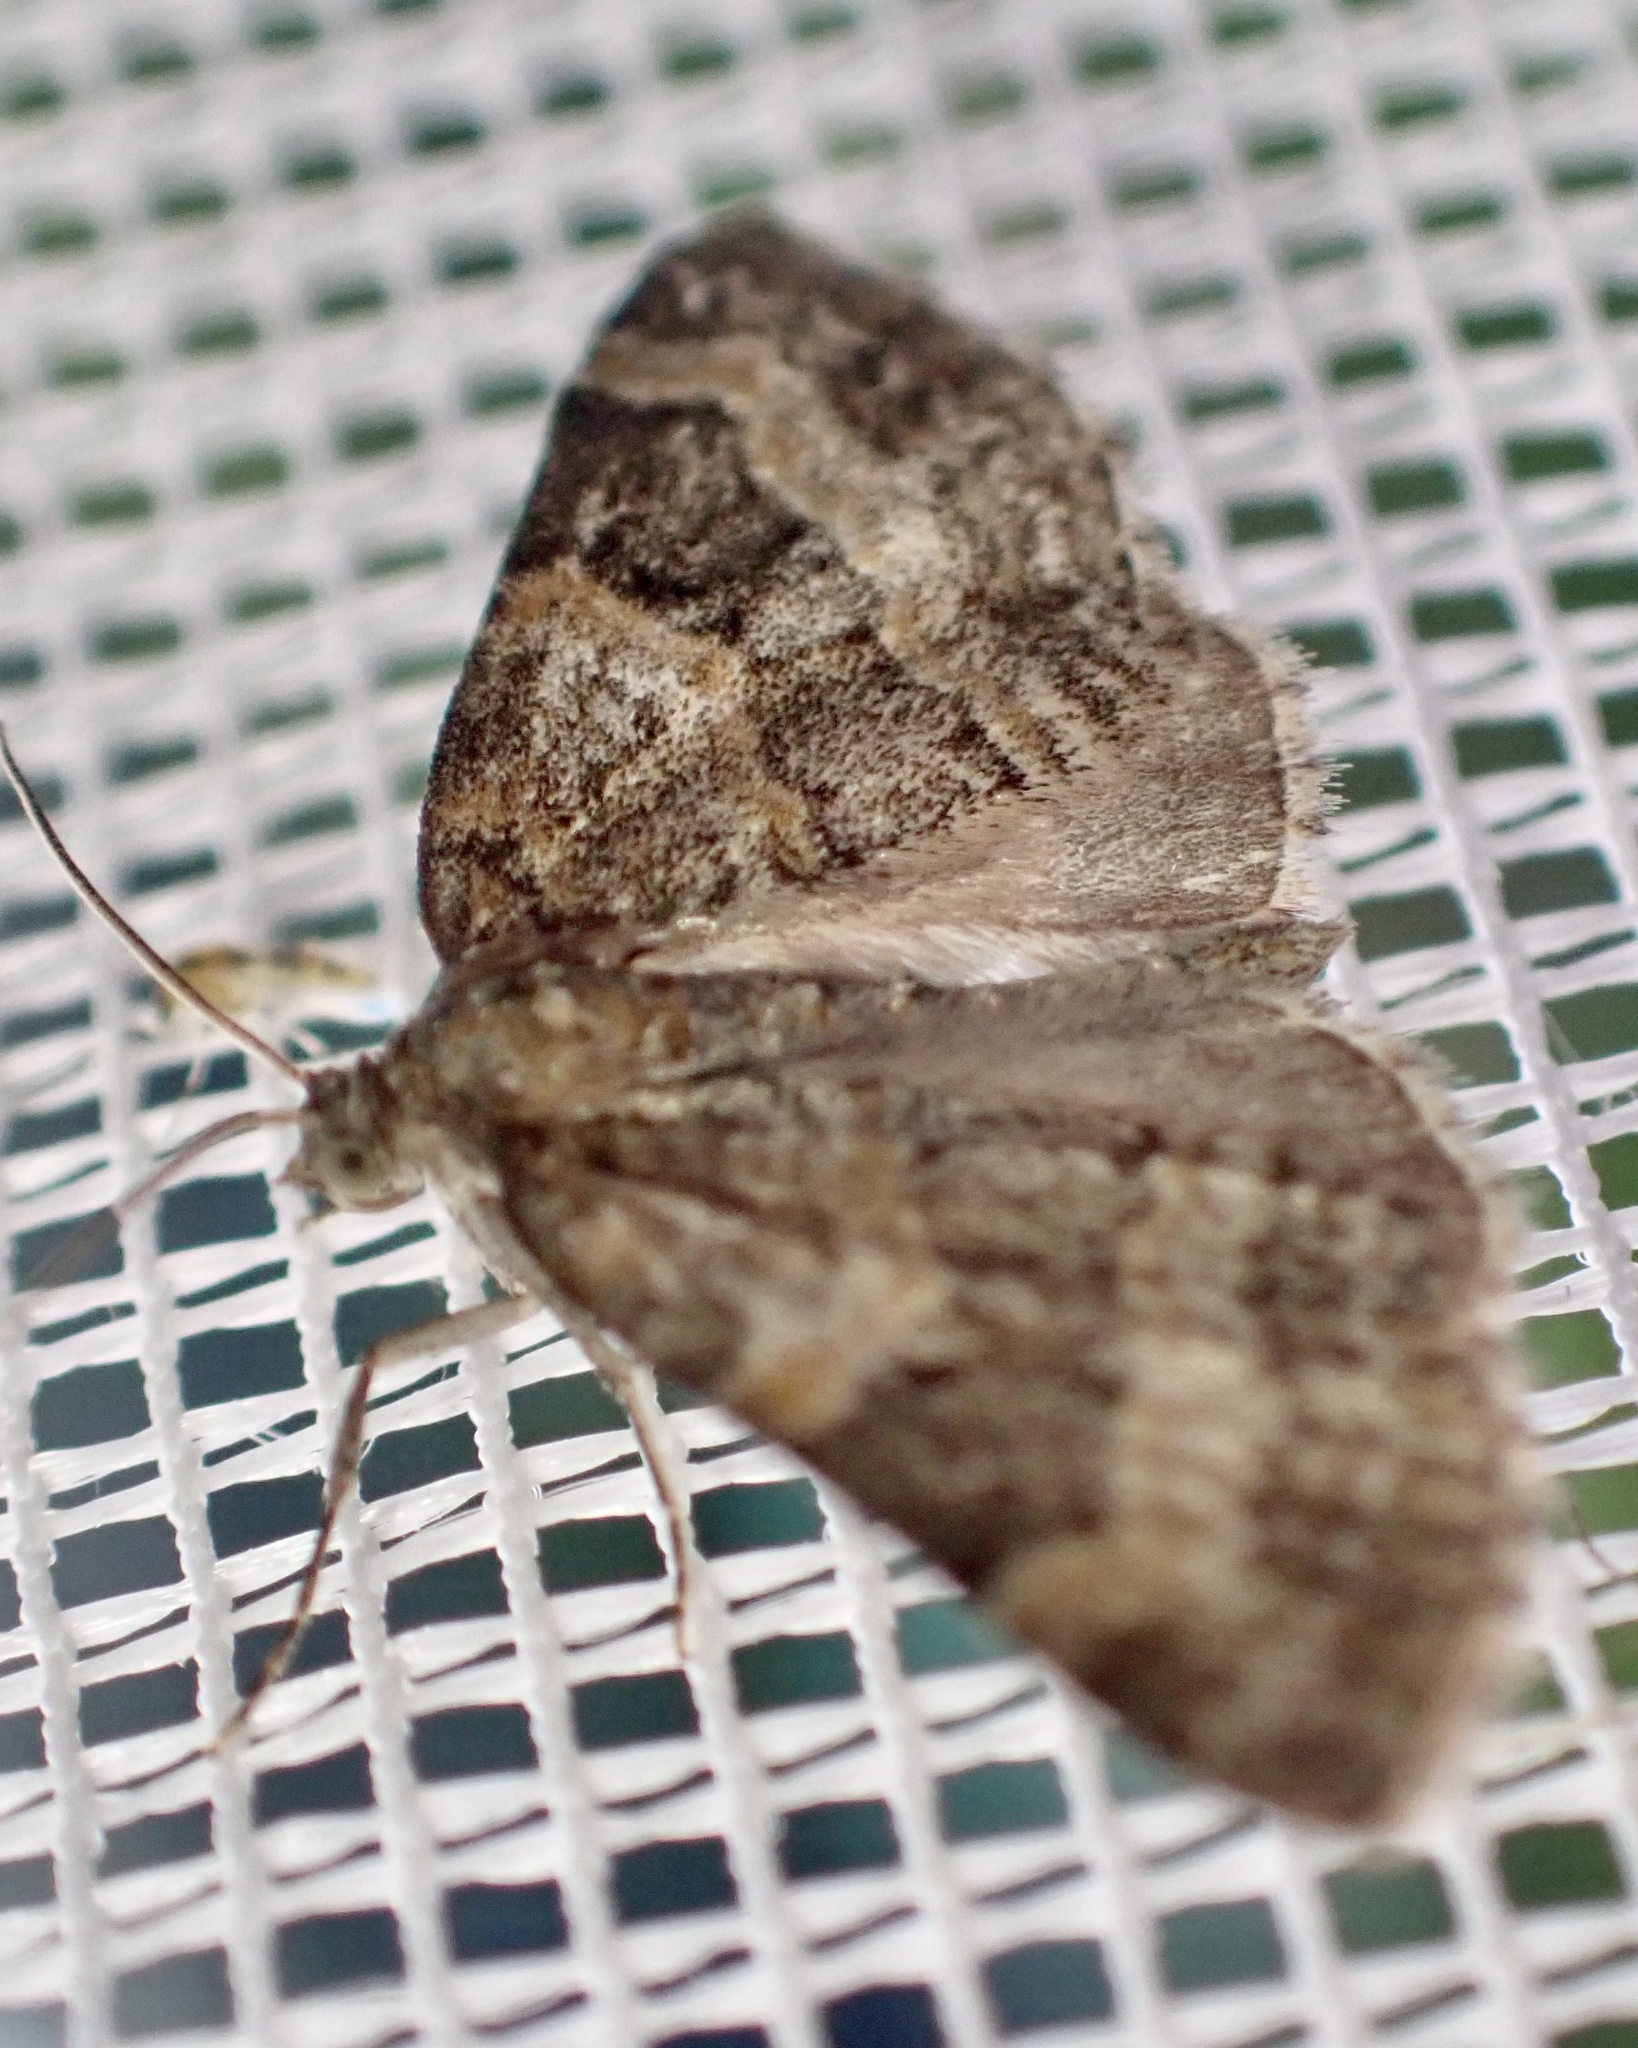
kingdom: Animalia
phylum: Arthropoda
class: Insecta
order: Lepidoptera
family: Geometridae
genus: Pterapherapteryx
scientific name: Pterapherapteryx sexalata
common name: Small seraphim
